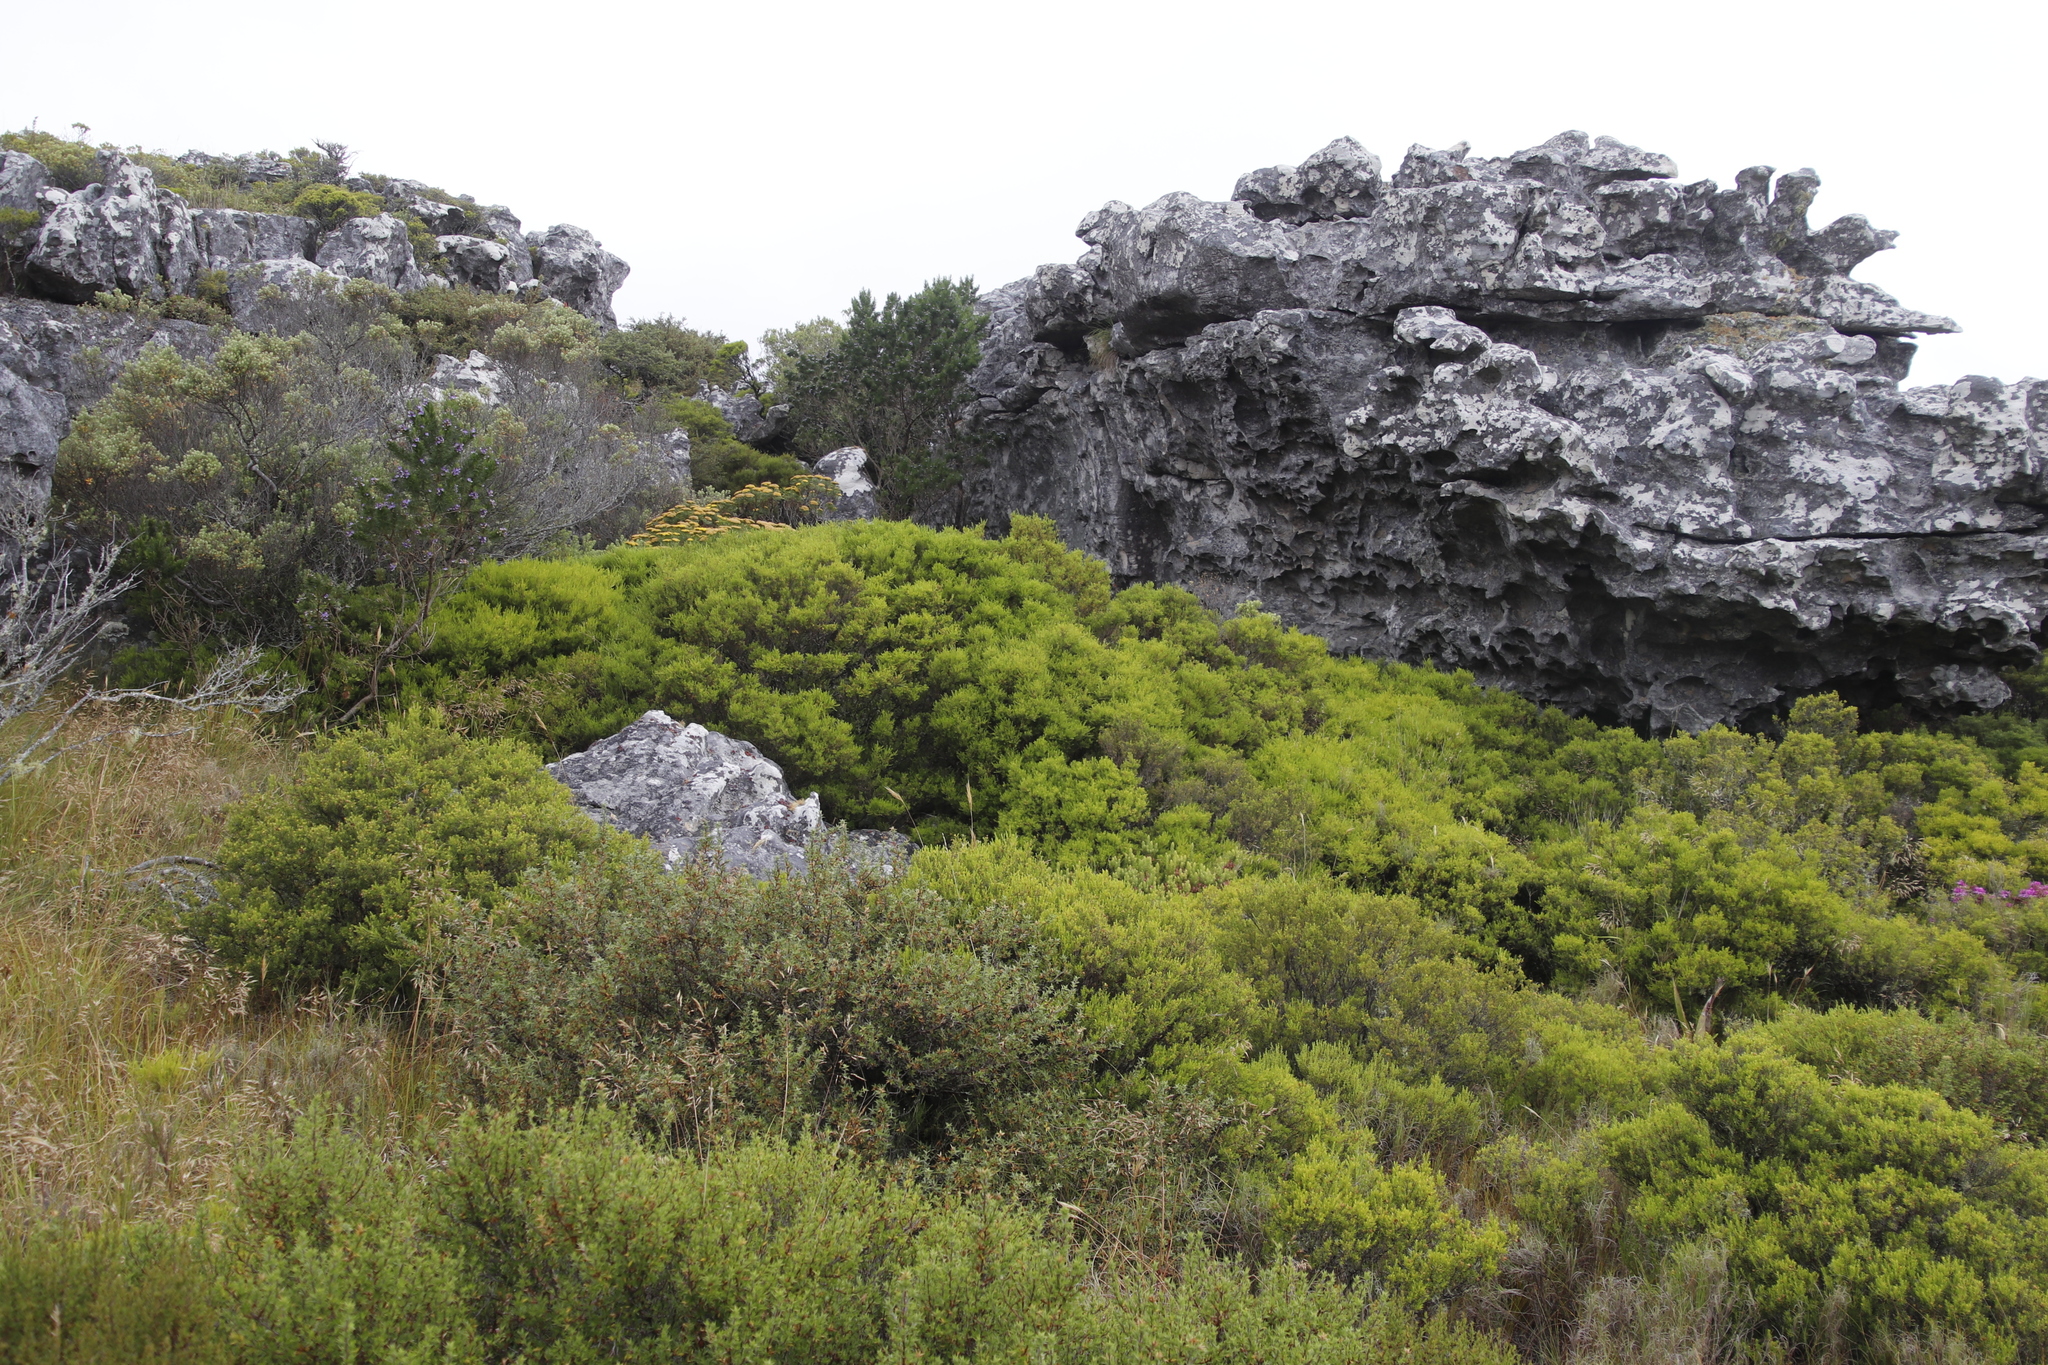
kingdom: Plantae
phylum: Tracheophyta
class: Magnoliopsida
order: Sapindales
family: Rutaceae
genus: Coleonema
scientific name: Coleonema album
